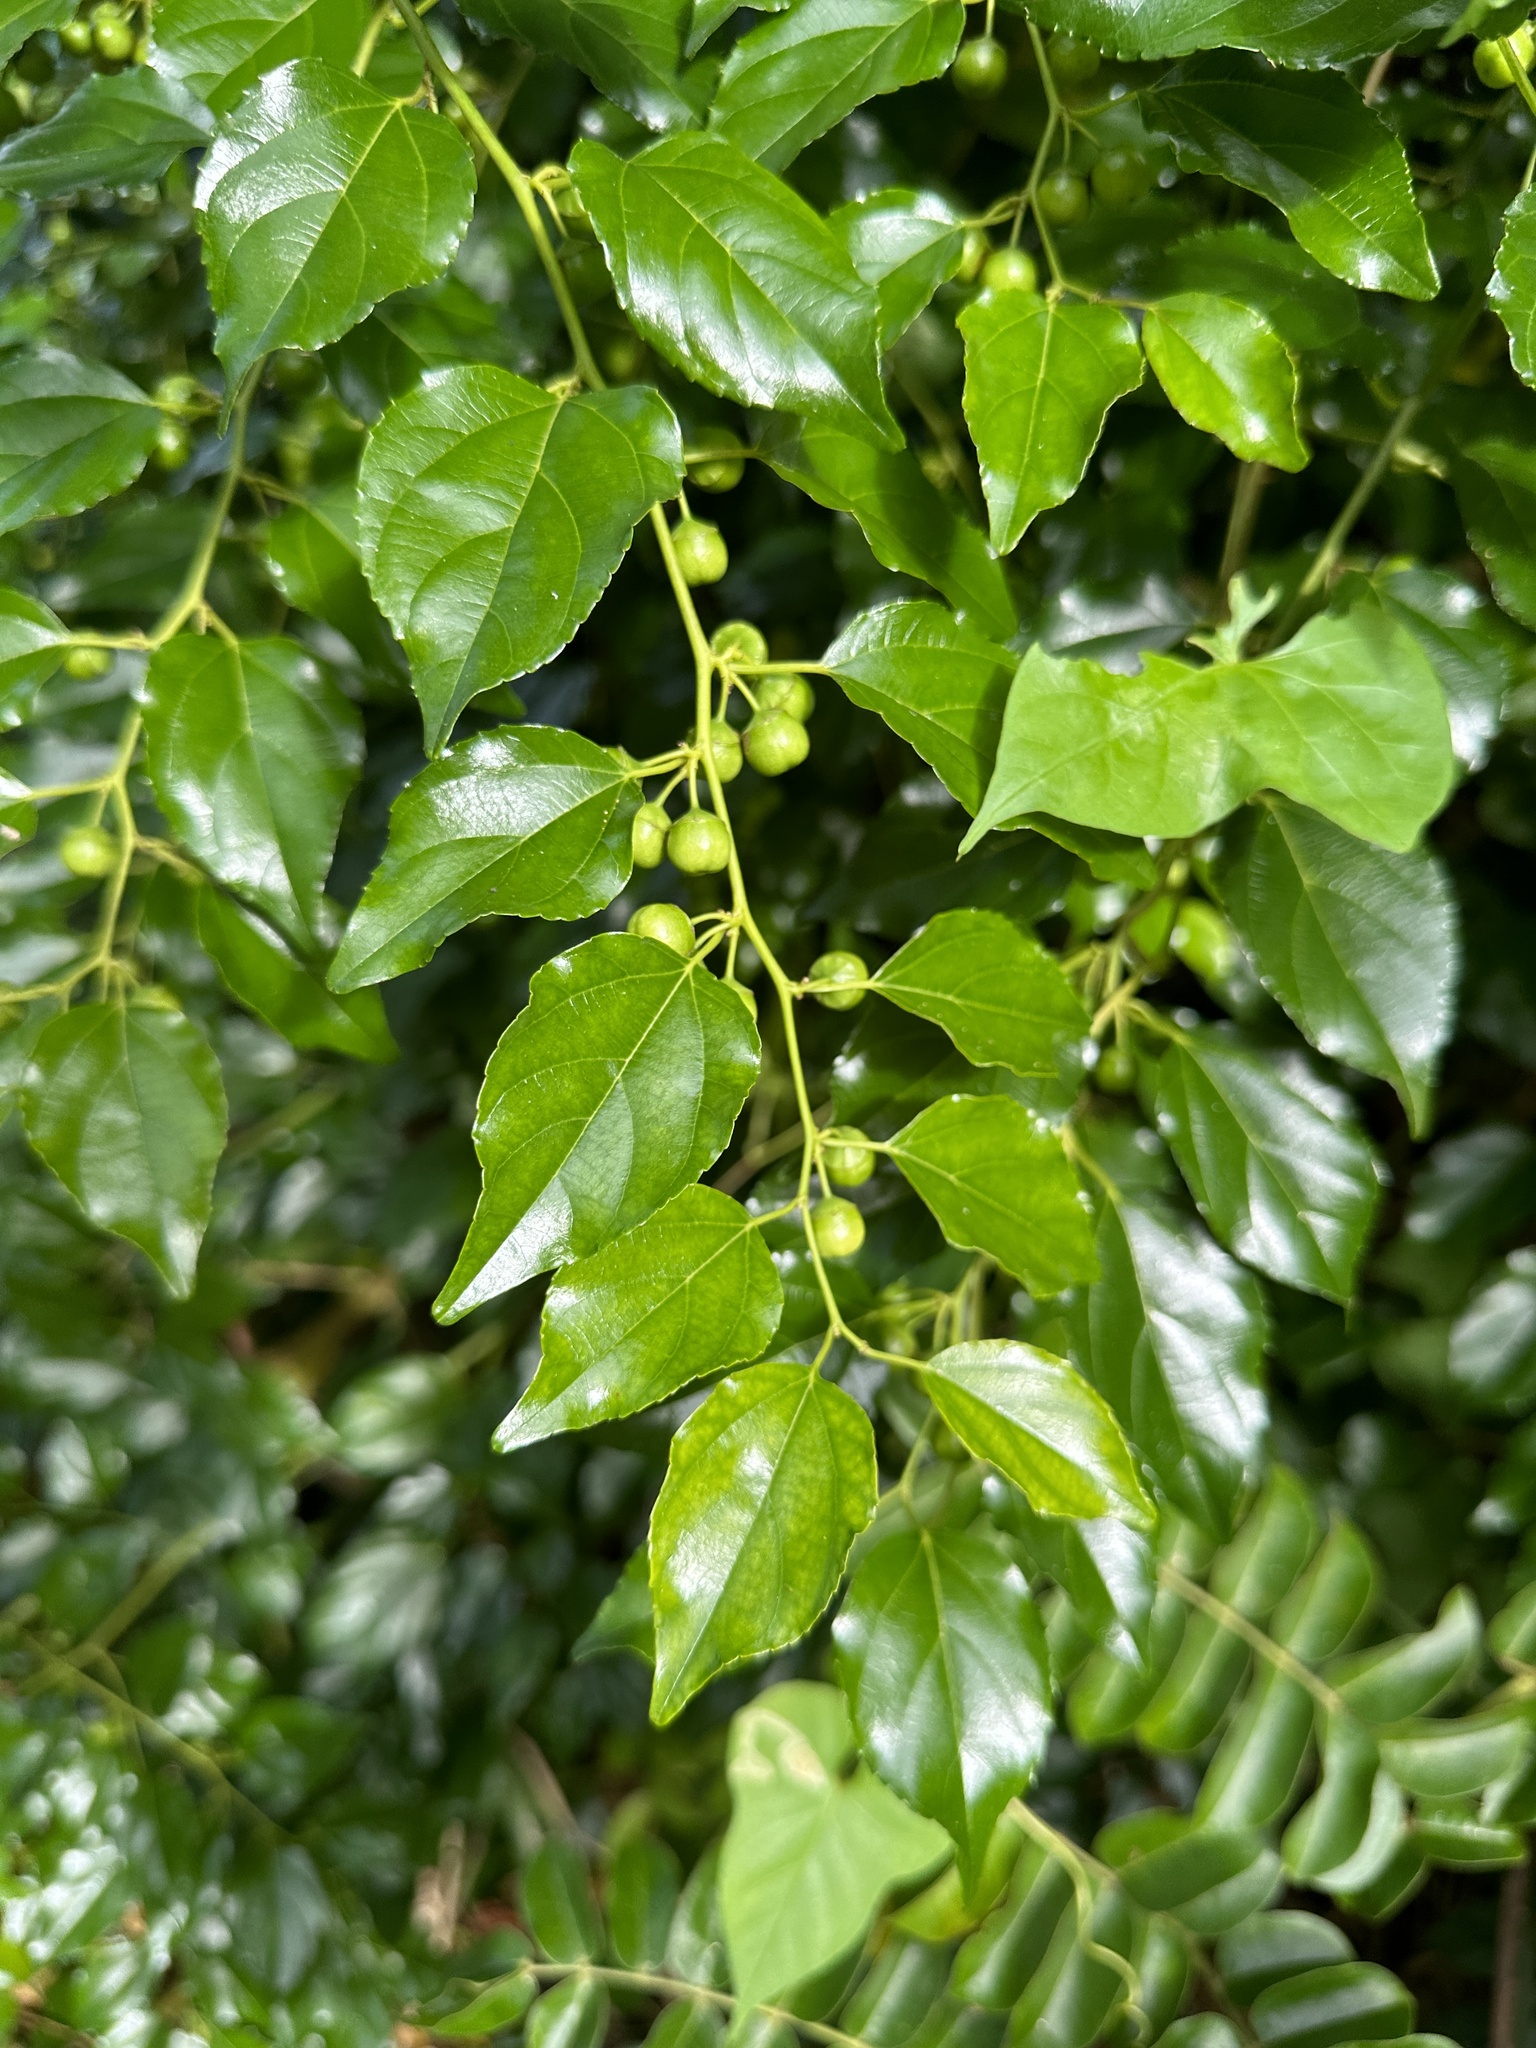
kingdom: Plantae
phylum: Tracheophyta
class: Magnoliopsida
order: Rosales
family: Rhamnaceae
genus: Colubrina
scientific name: Colubrina asiatica
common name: Asian nakedwood
